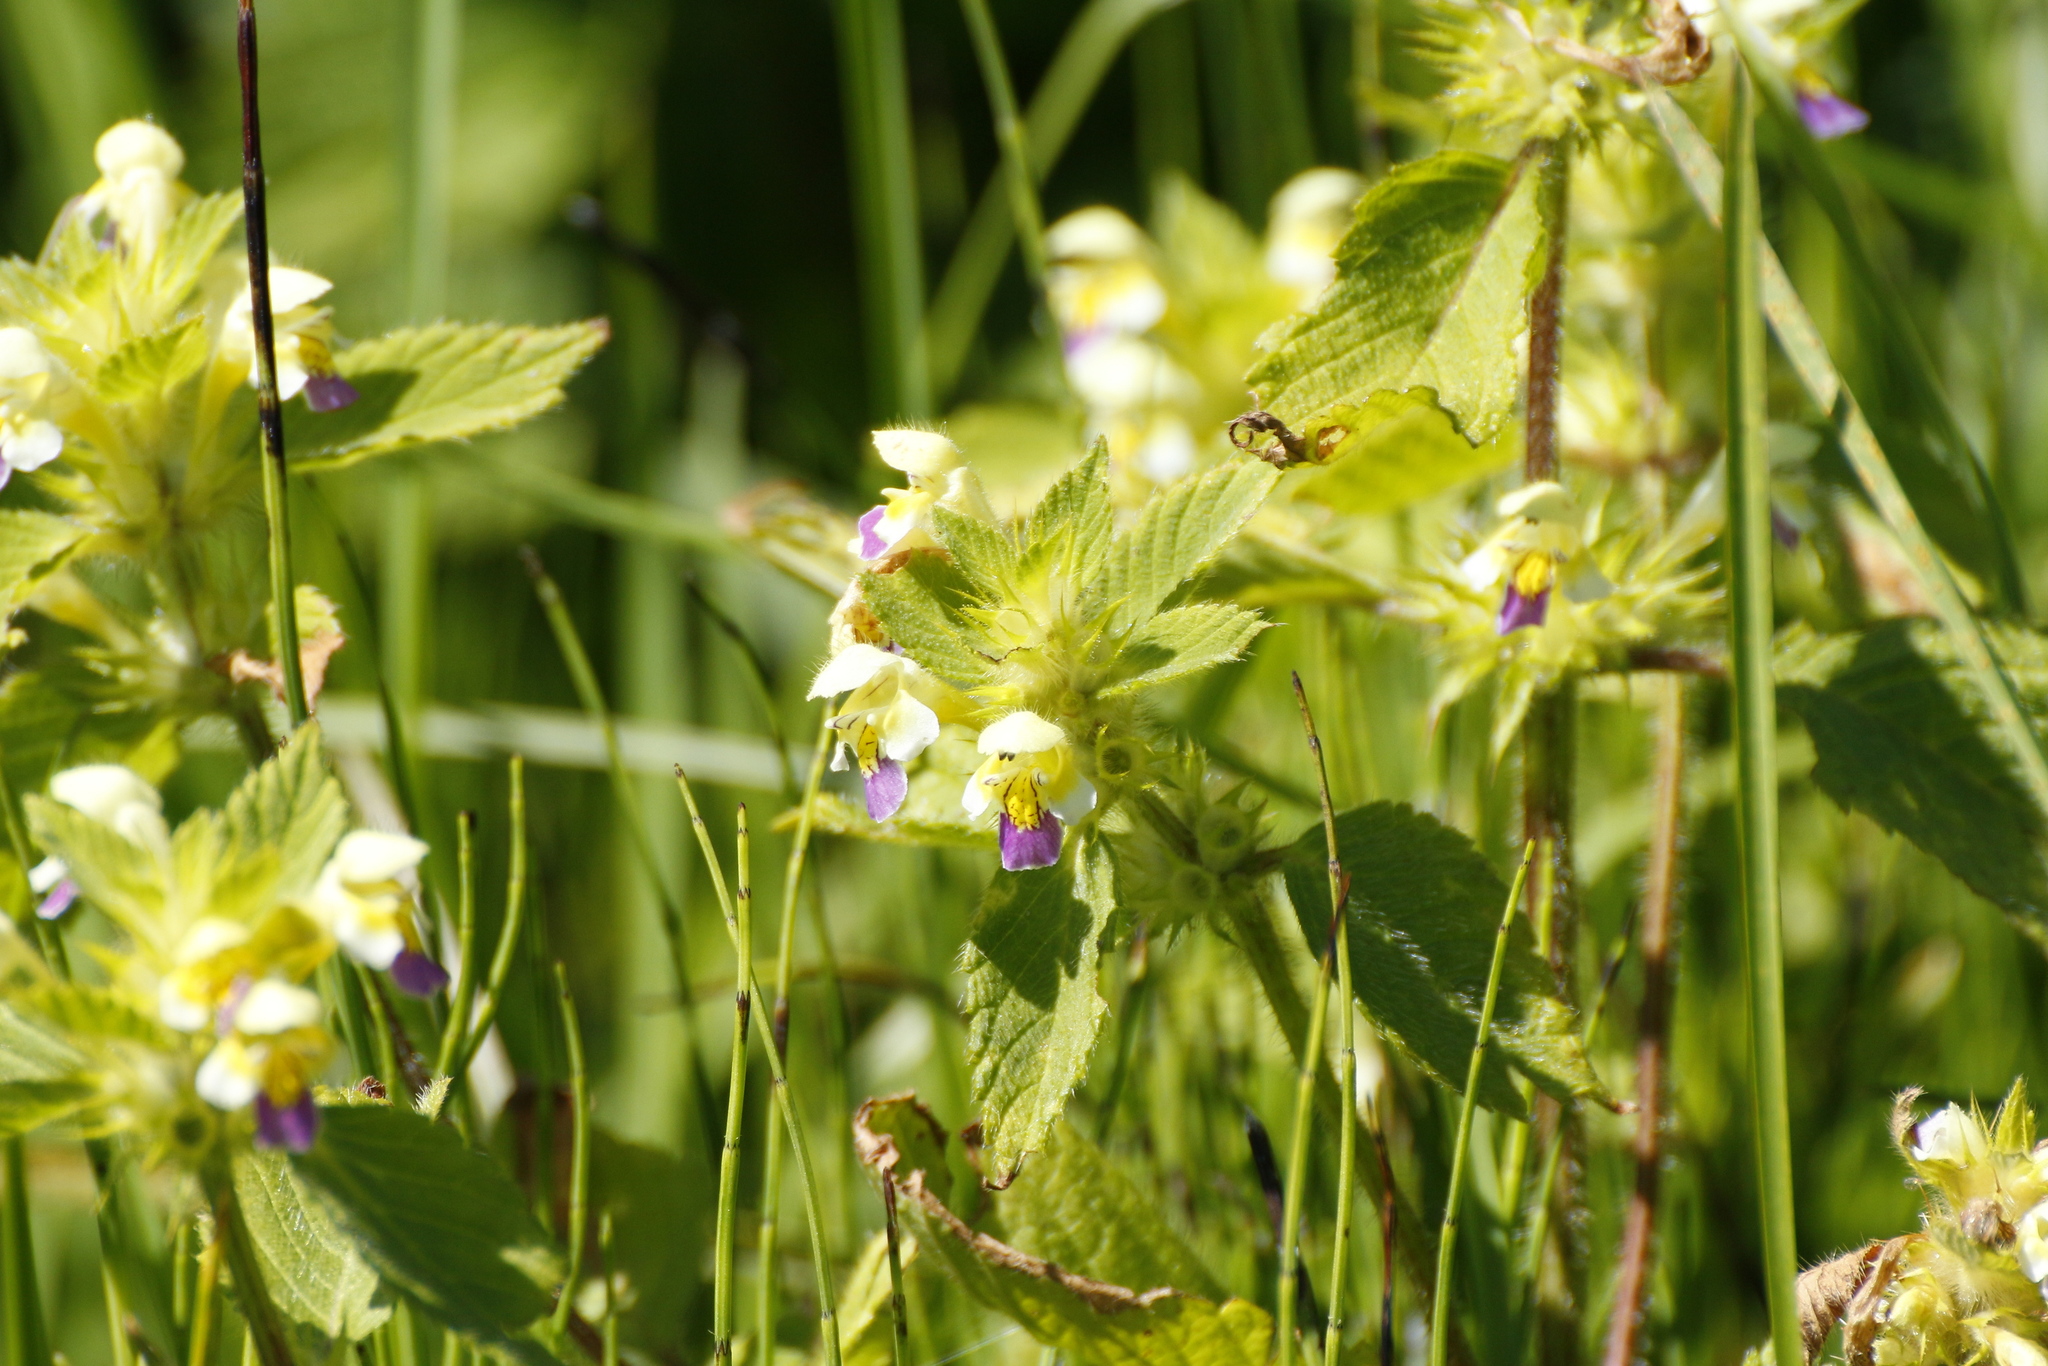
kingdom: Plantae
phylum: Tracheophyta
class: Magnoliopsida
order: Lamiales
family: Lamiaceae
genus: Galeopsis
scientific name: Galeopsis speciosa
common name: Large-flowered hemp-nettle
